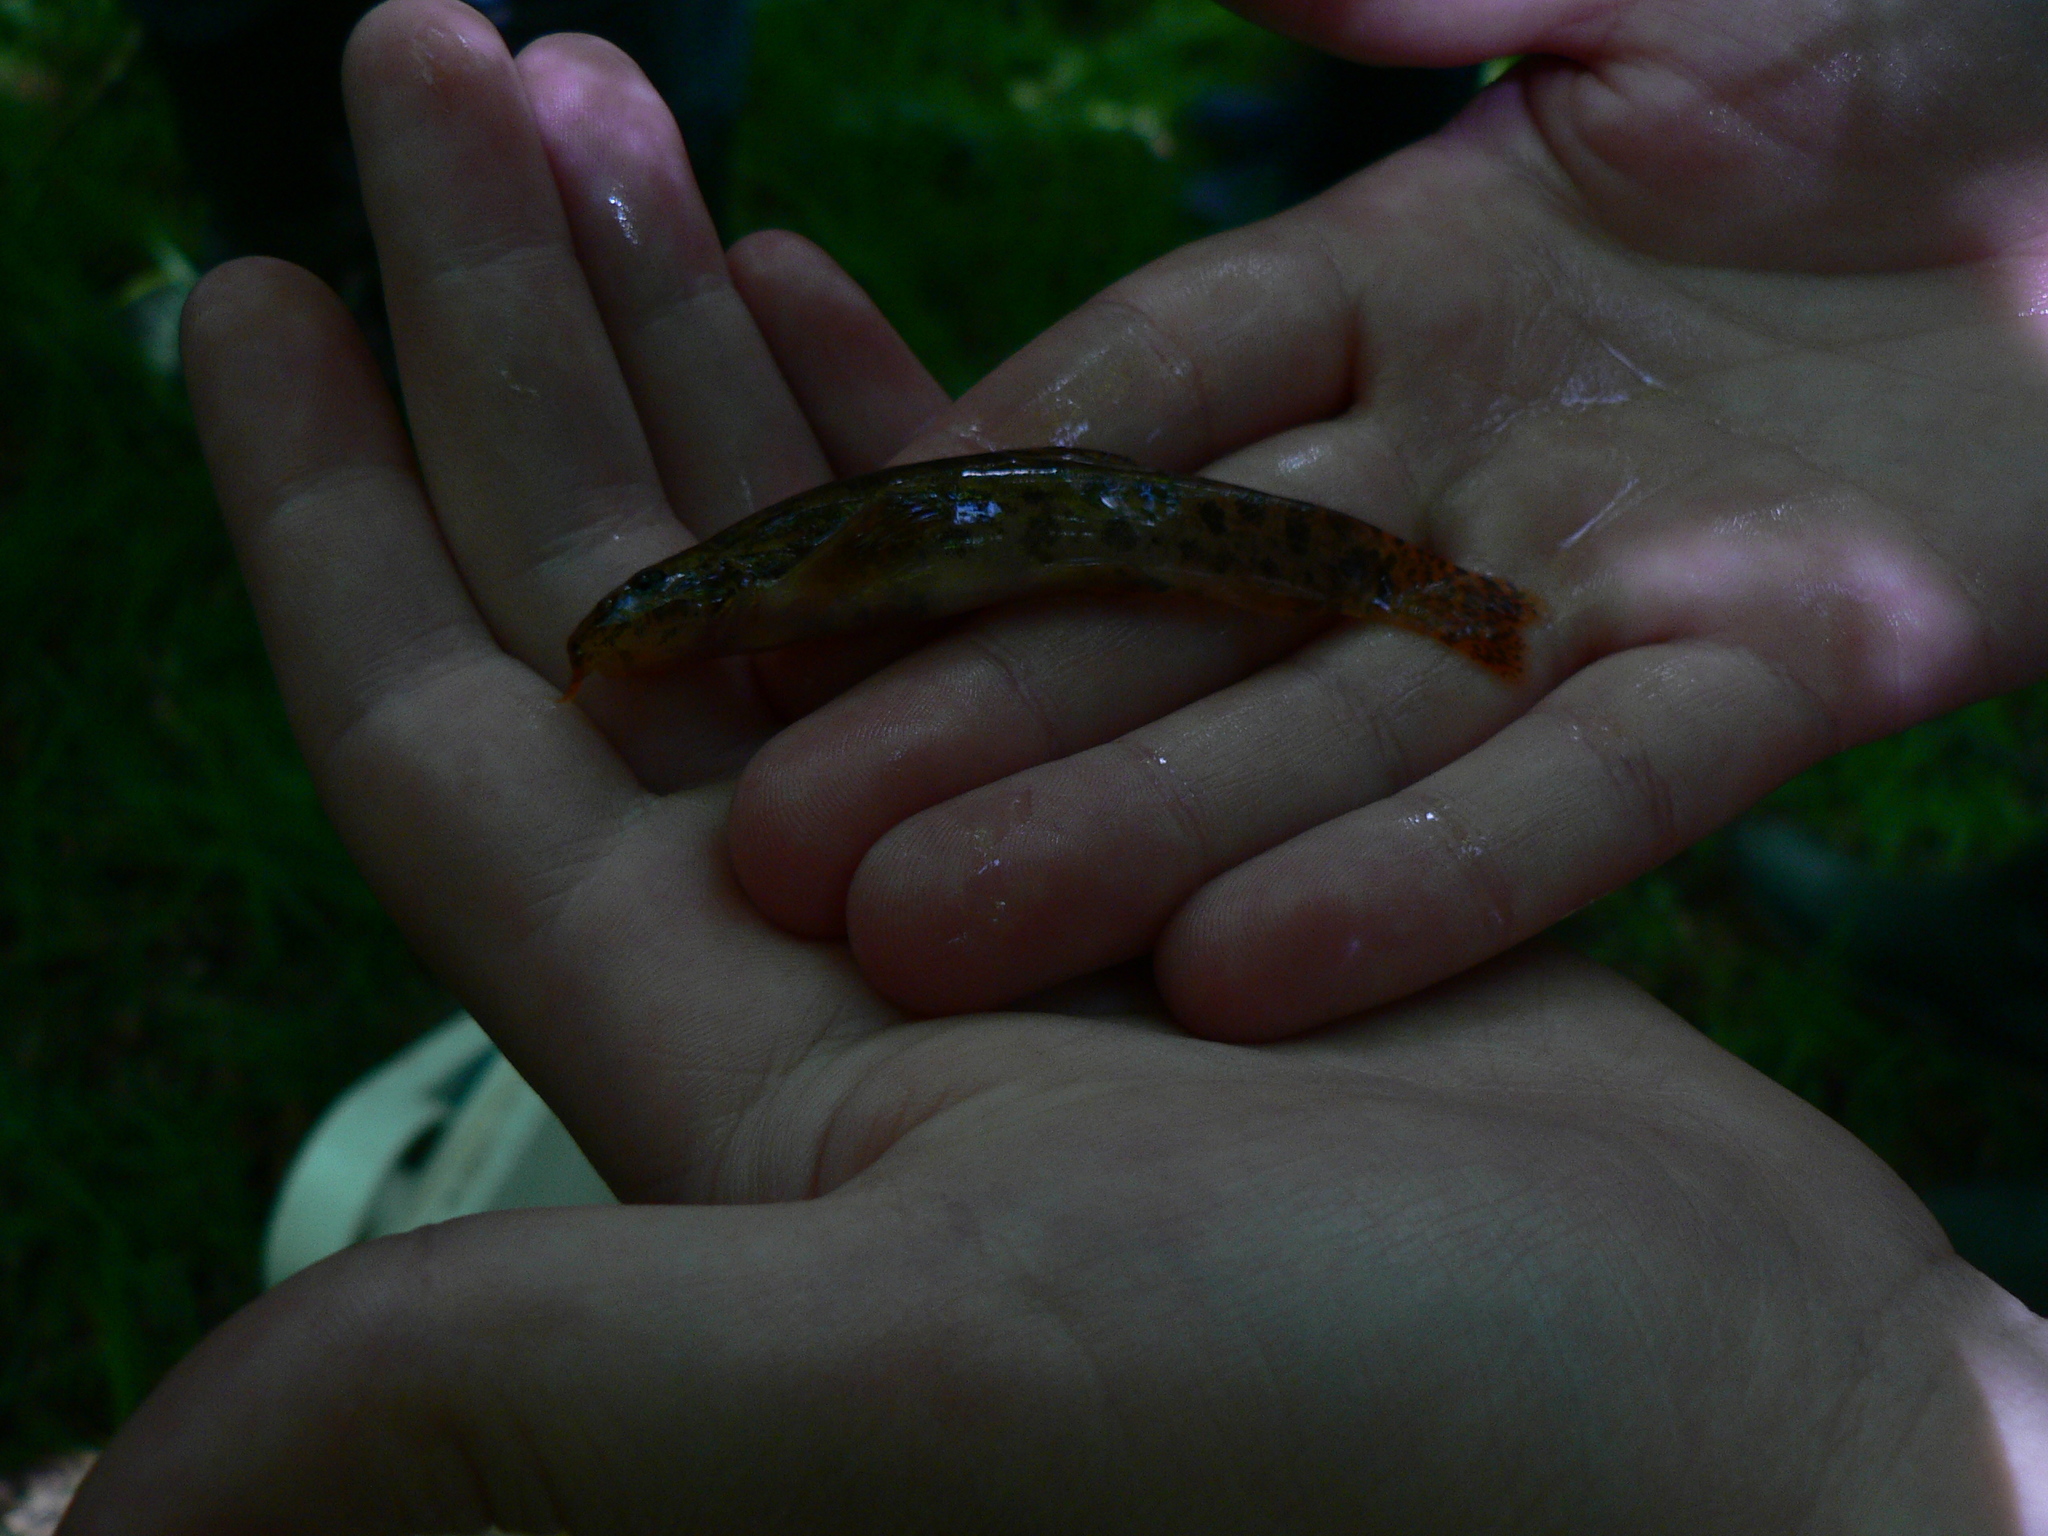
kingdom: Animalia
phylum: Chordata
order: Cypriniformes
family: Nemacheilidae
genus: Barbatula
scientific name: Barbatula barbatula
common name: Stone loach
